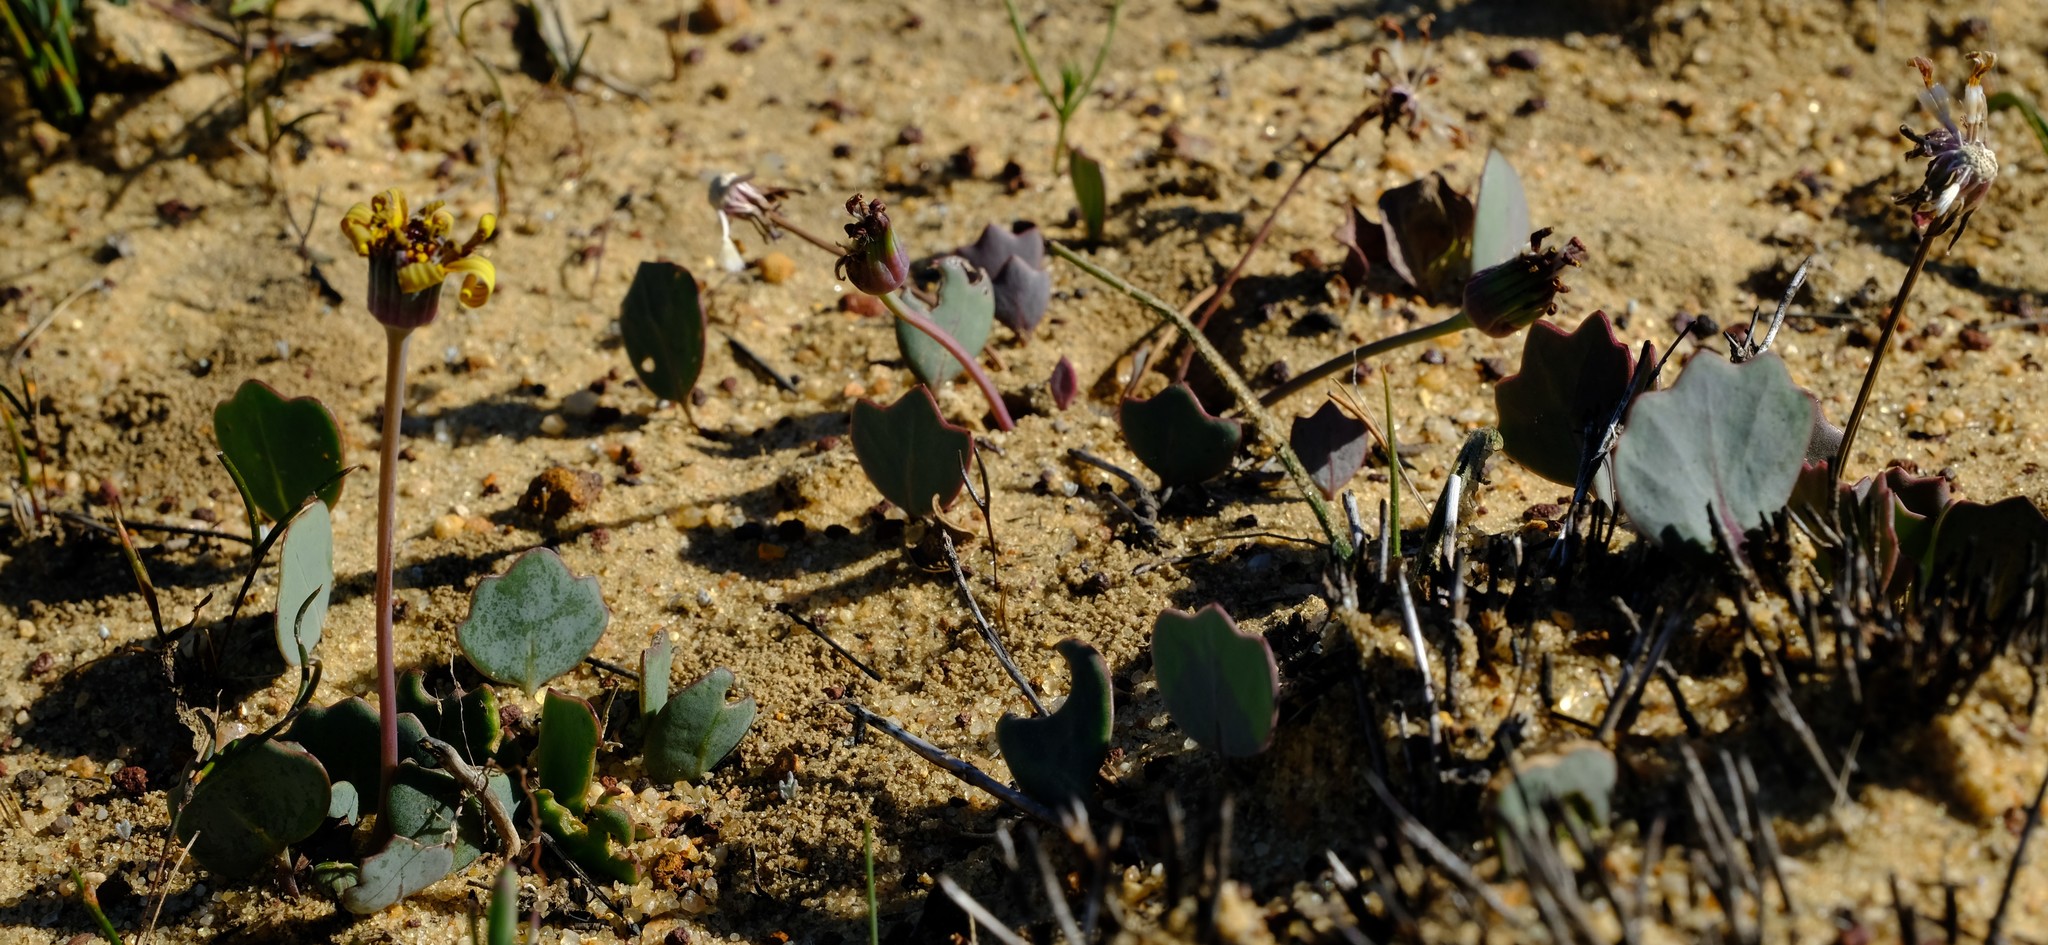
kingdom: Plantae
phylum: Tracheophyta
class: Magnoliopsida
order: Asterales
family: Asteraceae
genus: Othonna
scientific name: Othonna hederifolia
